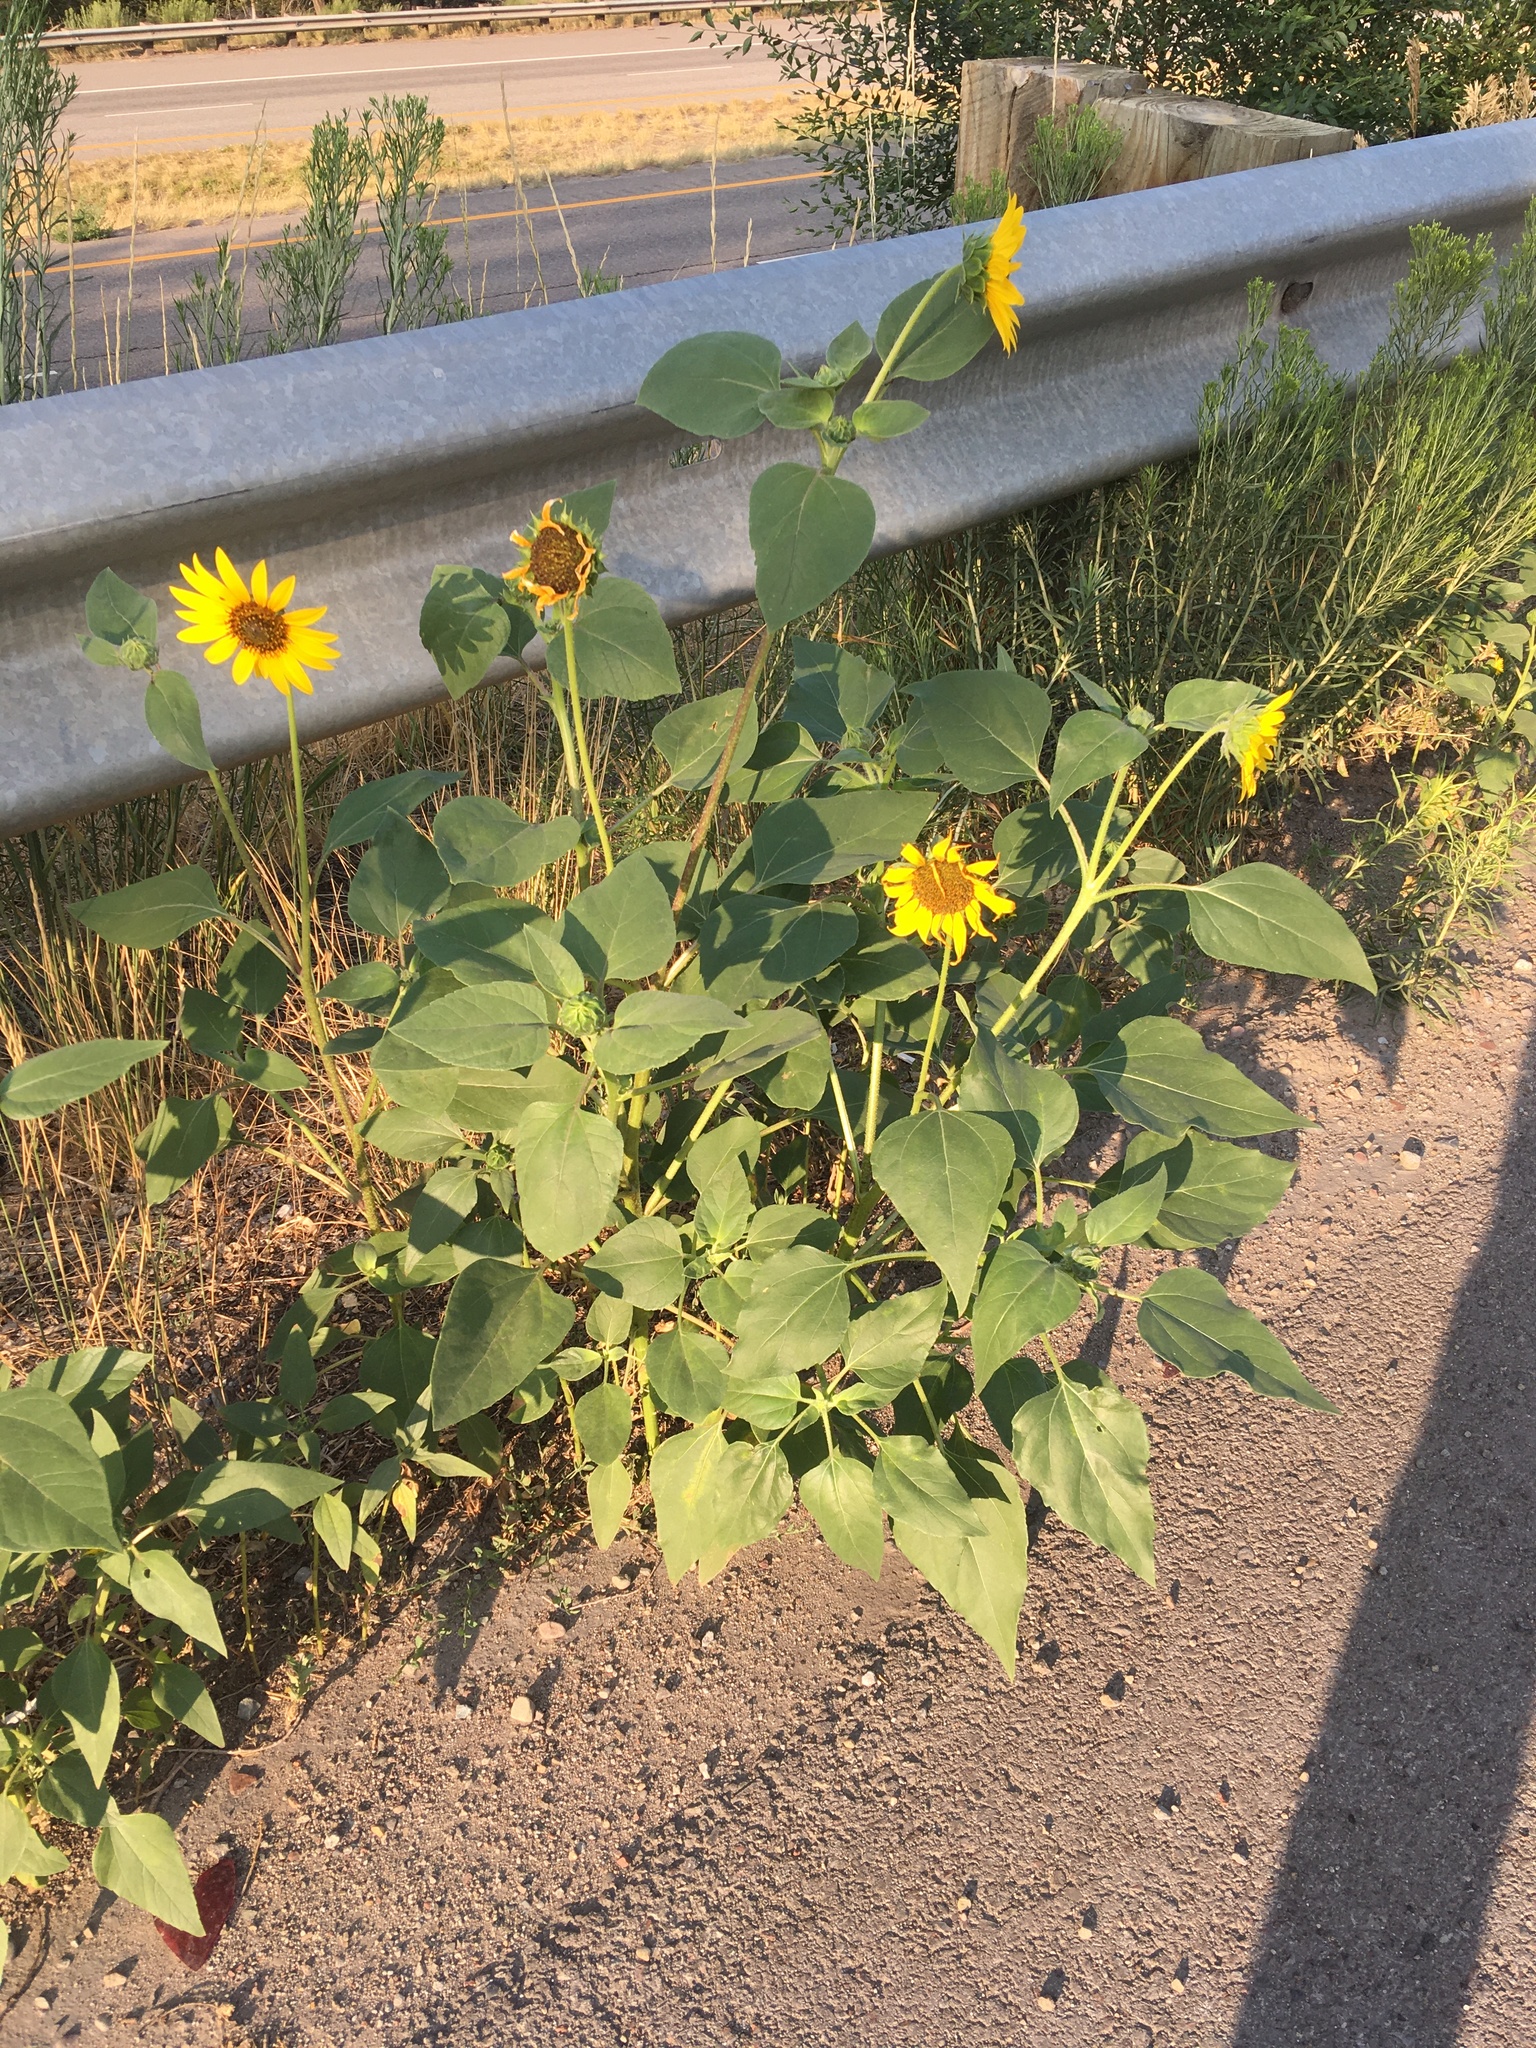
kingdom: Plantae
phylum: Tracheophyta
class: Magnoliopsida
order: Asterales
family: Asteraceae
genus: Helianthus
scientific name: Helianthus annuus
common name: Sunflower
